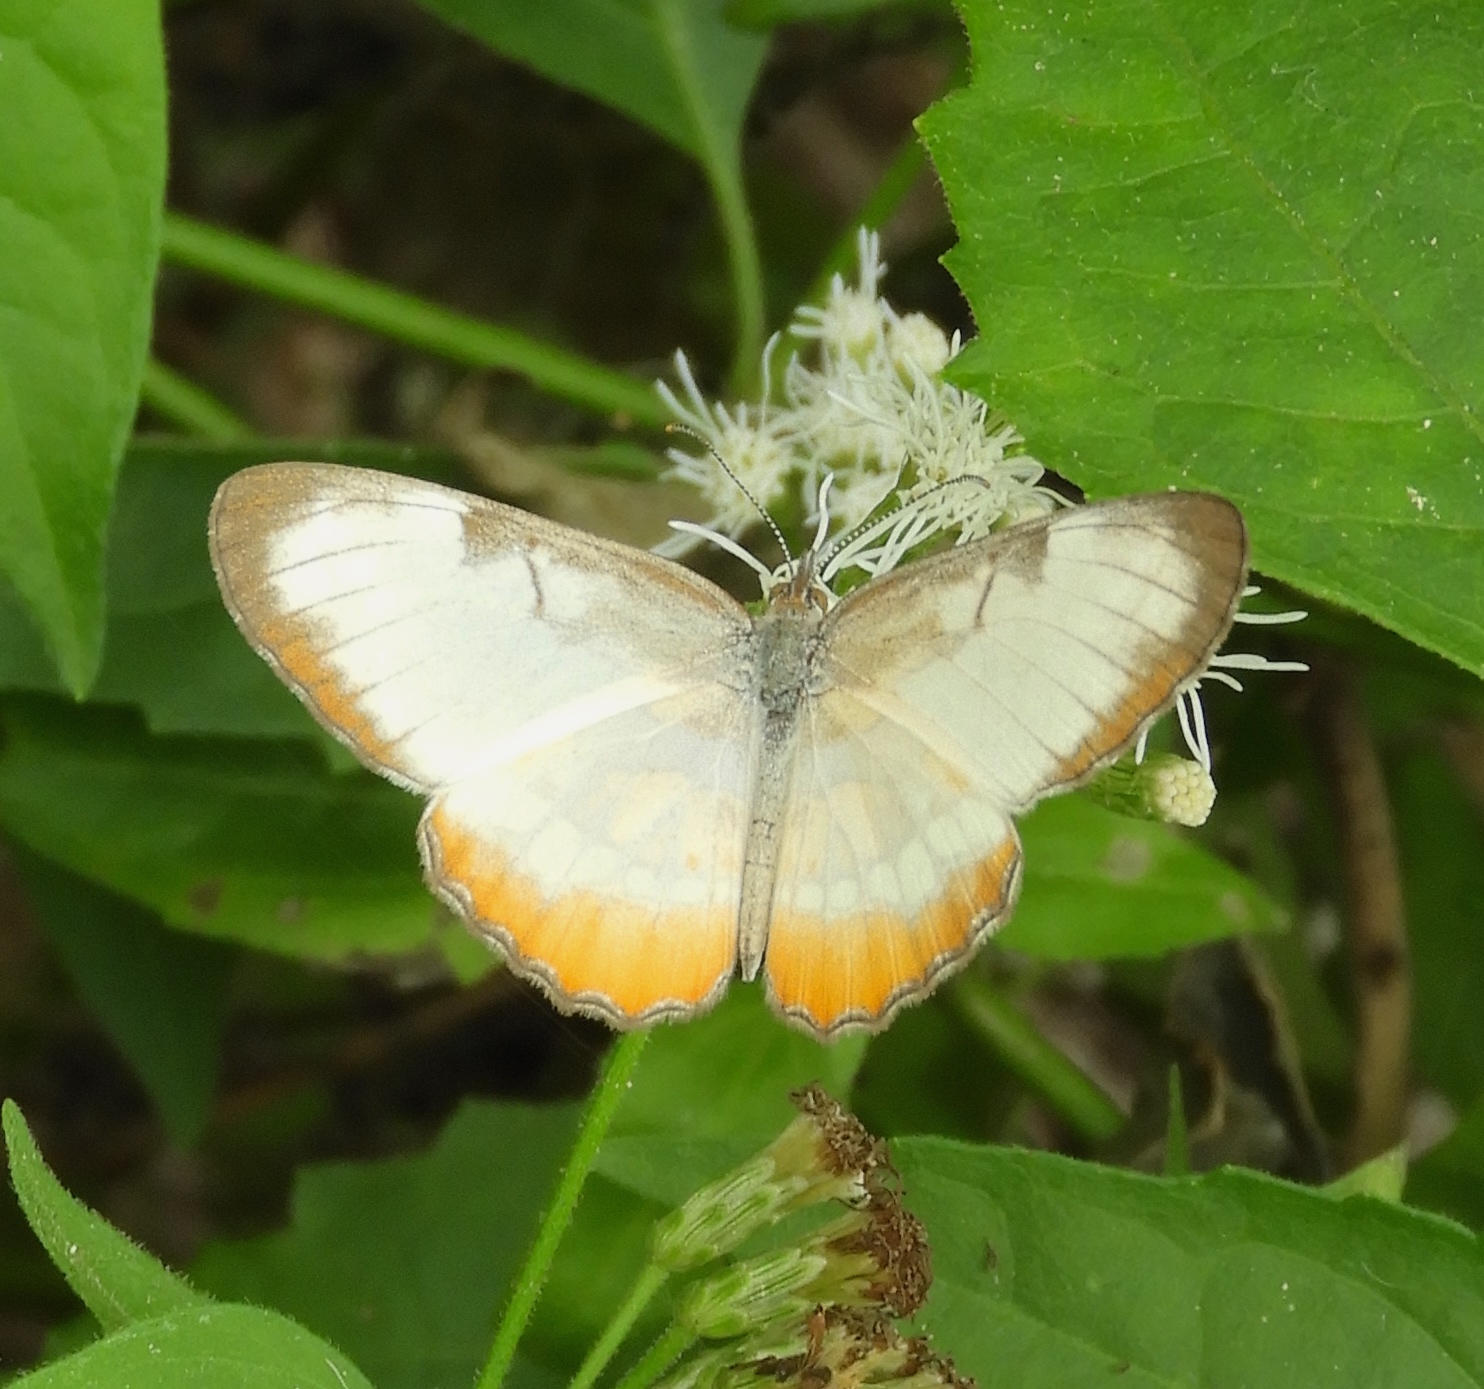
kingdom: Animalia
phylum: Arthropoda
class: Insecta
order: Lepidoptera
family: Nymphalidae
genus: Mestra
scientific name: Mestra amymone
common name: Common mestra
